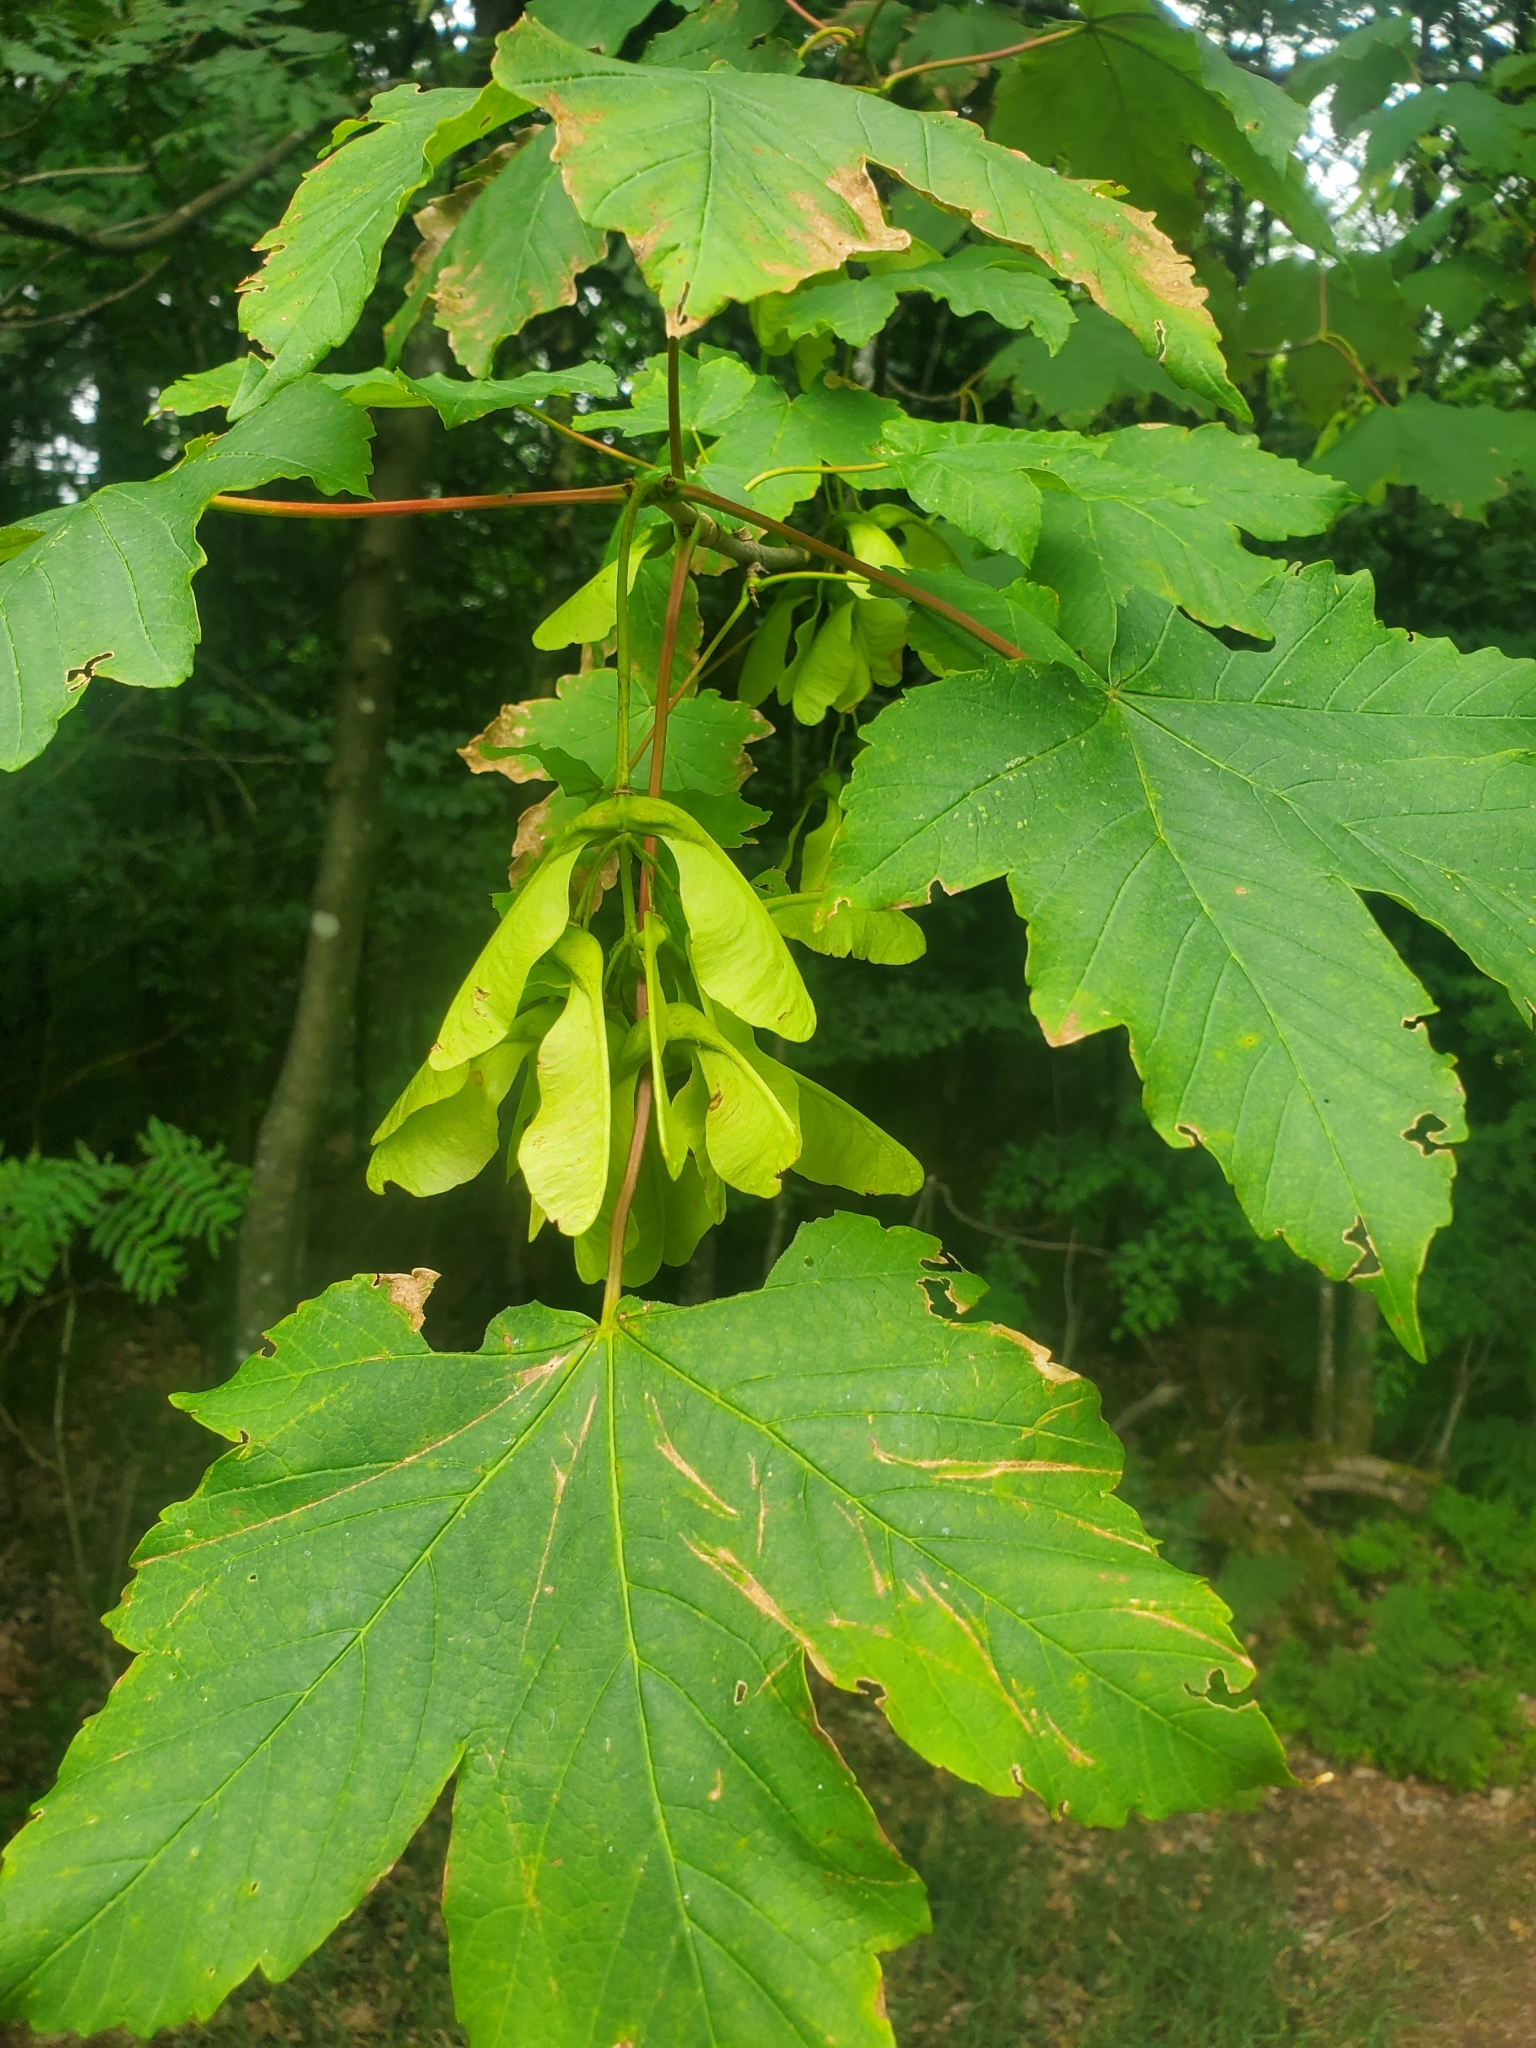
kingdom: Plantae
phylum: Tracheophyta
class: Magnoliopsida
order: Sapindales
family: Sapindaceae
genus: Acer
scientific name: Acer pseudoplatanus
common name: Sycamore
